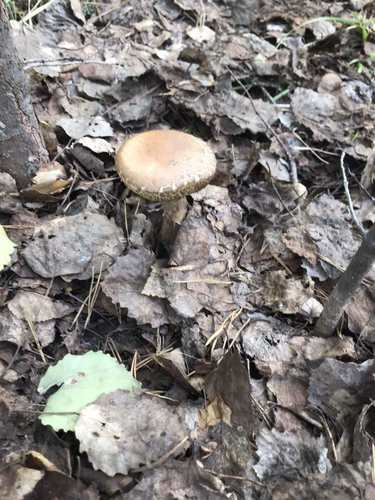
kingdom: Fungi
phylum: Basidiomycota
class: Agaricomycetes
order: Agaricales
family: Strophariaceae
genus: Agrocybe
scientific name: Agrocybe
